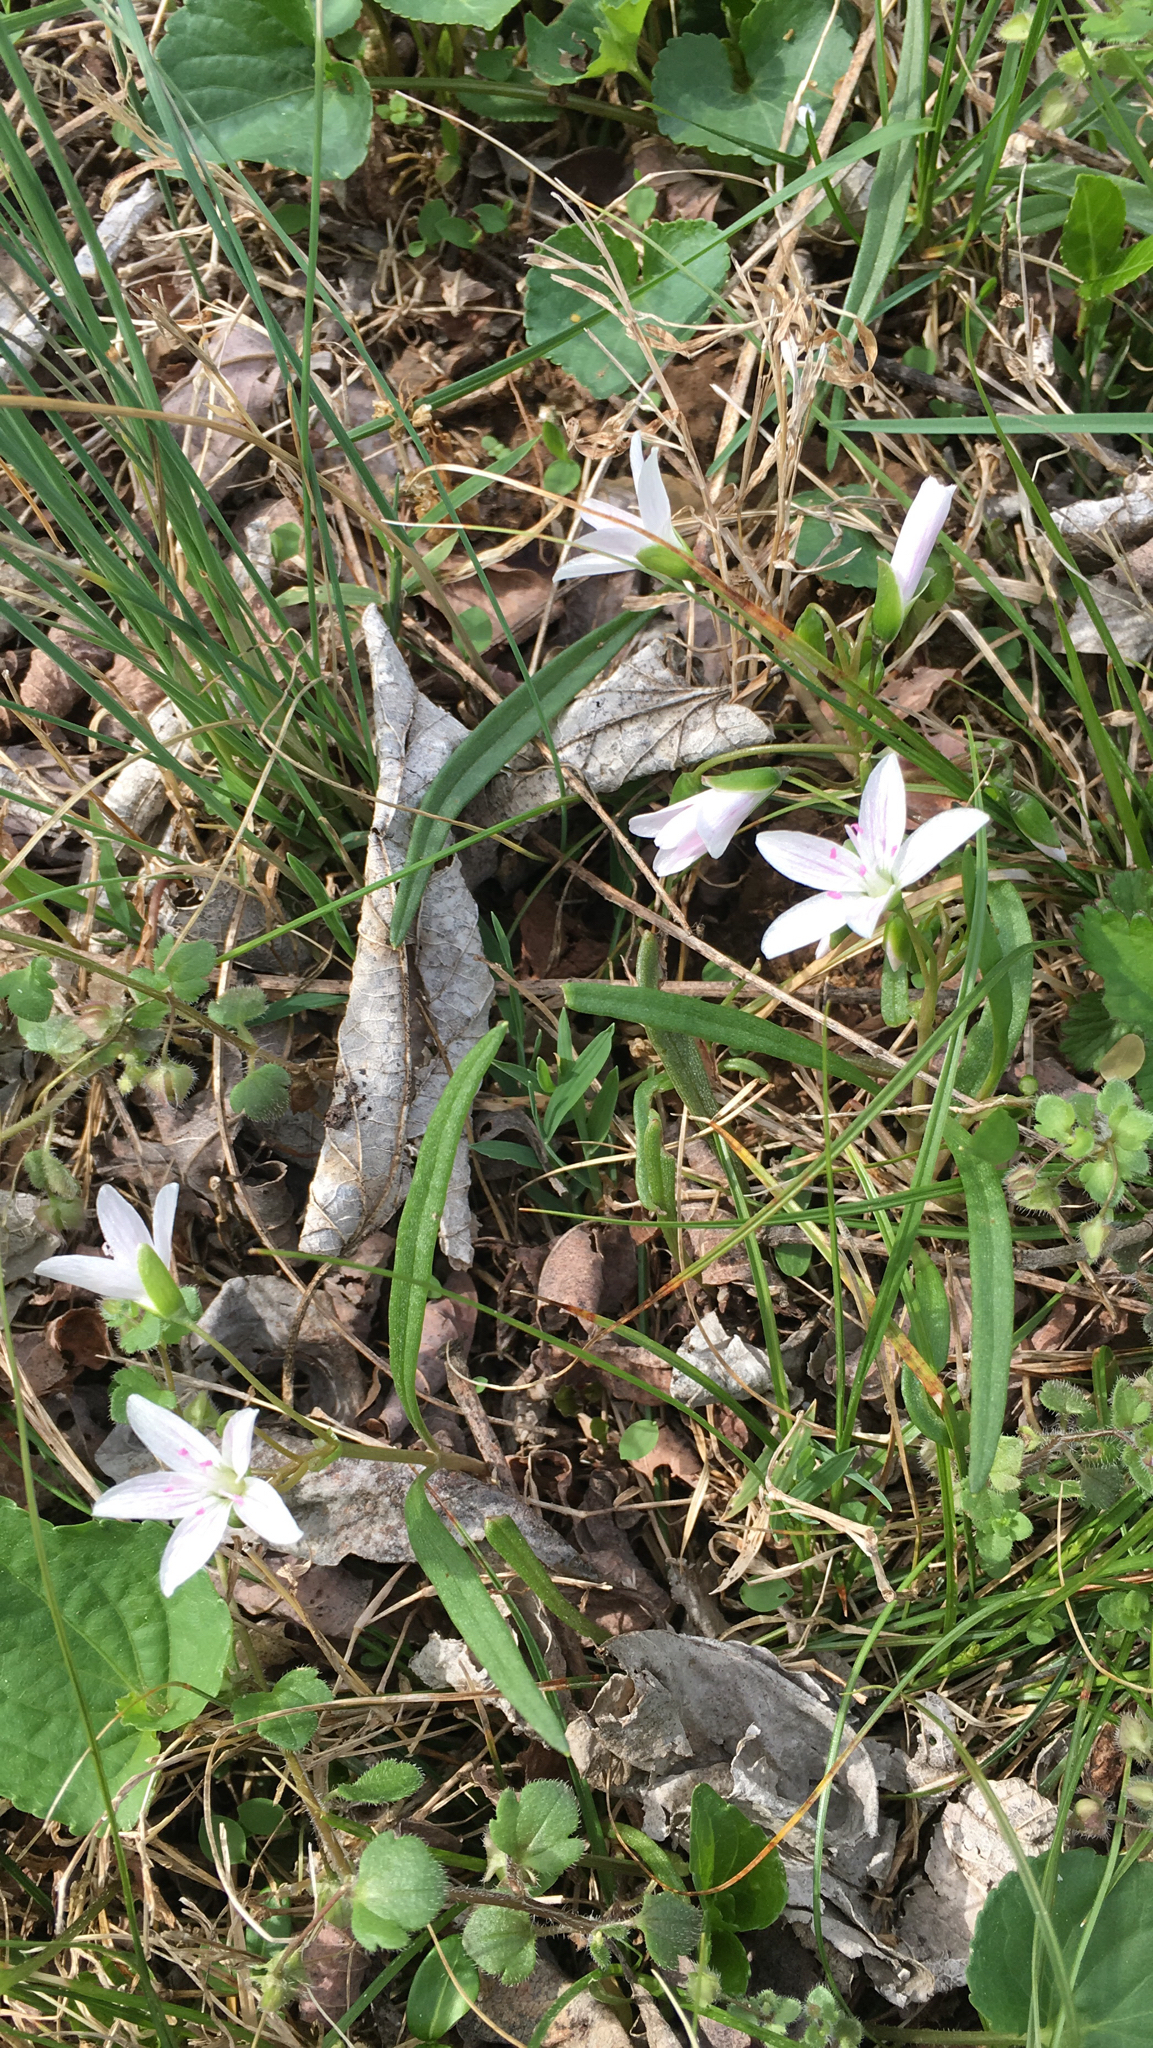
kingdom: Plantae
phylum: Tracheophyta
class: Magnoliopsida
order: Caryophyllales
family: Montiaceae
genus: Claytonia
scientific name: Claytonia virginica
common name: Virginia springbeauty
